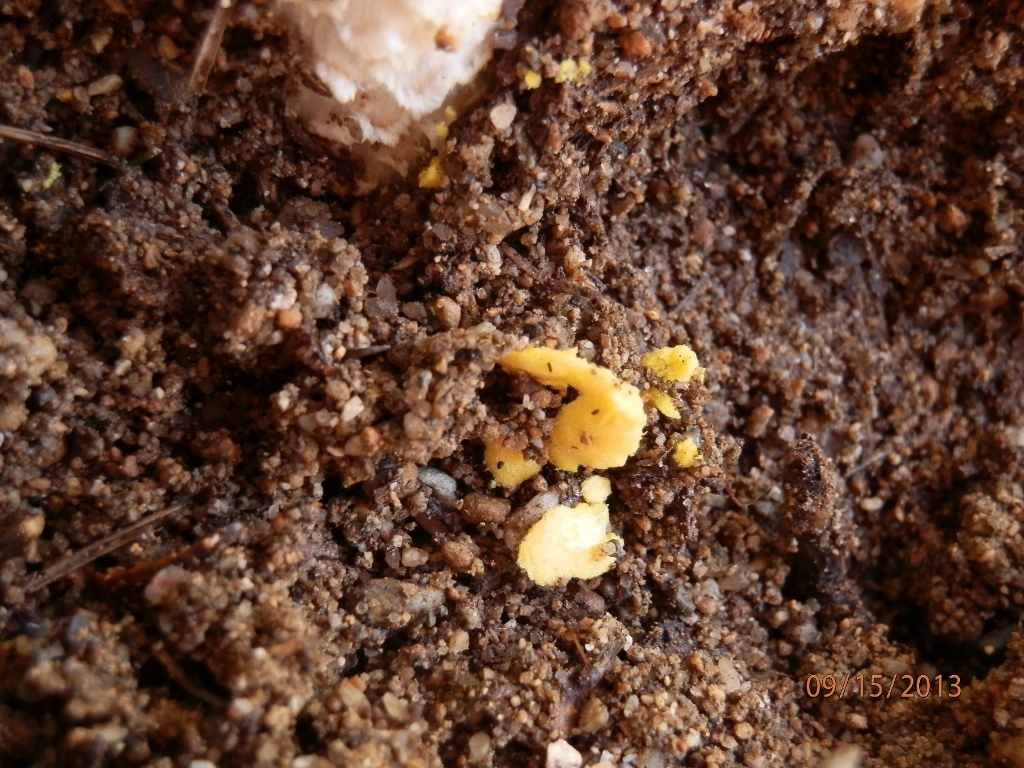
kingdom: Fungi
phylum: Basidiomycota
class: Agaricomycetes
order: Agaricales
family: Amanitaceae
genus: Amanita
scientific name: Amanita flavorubens
